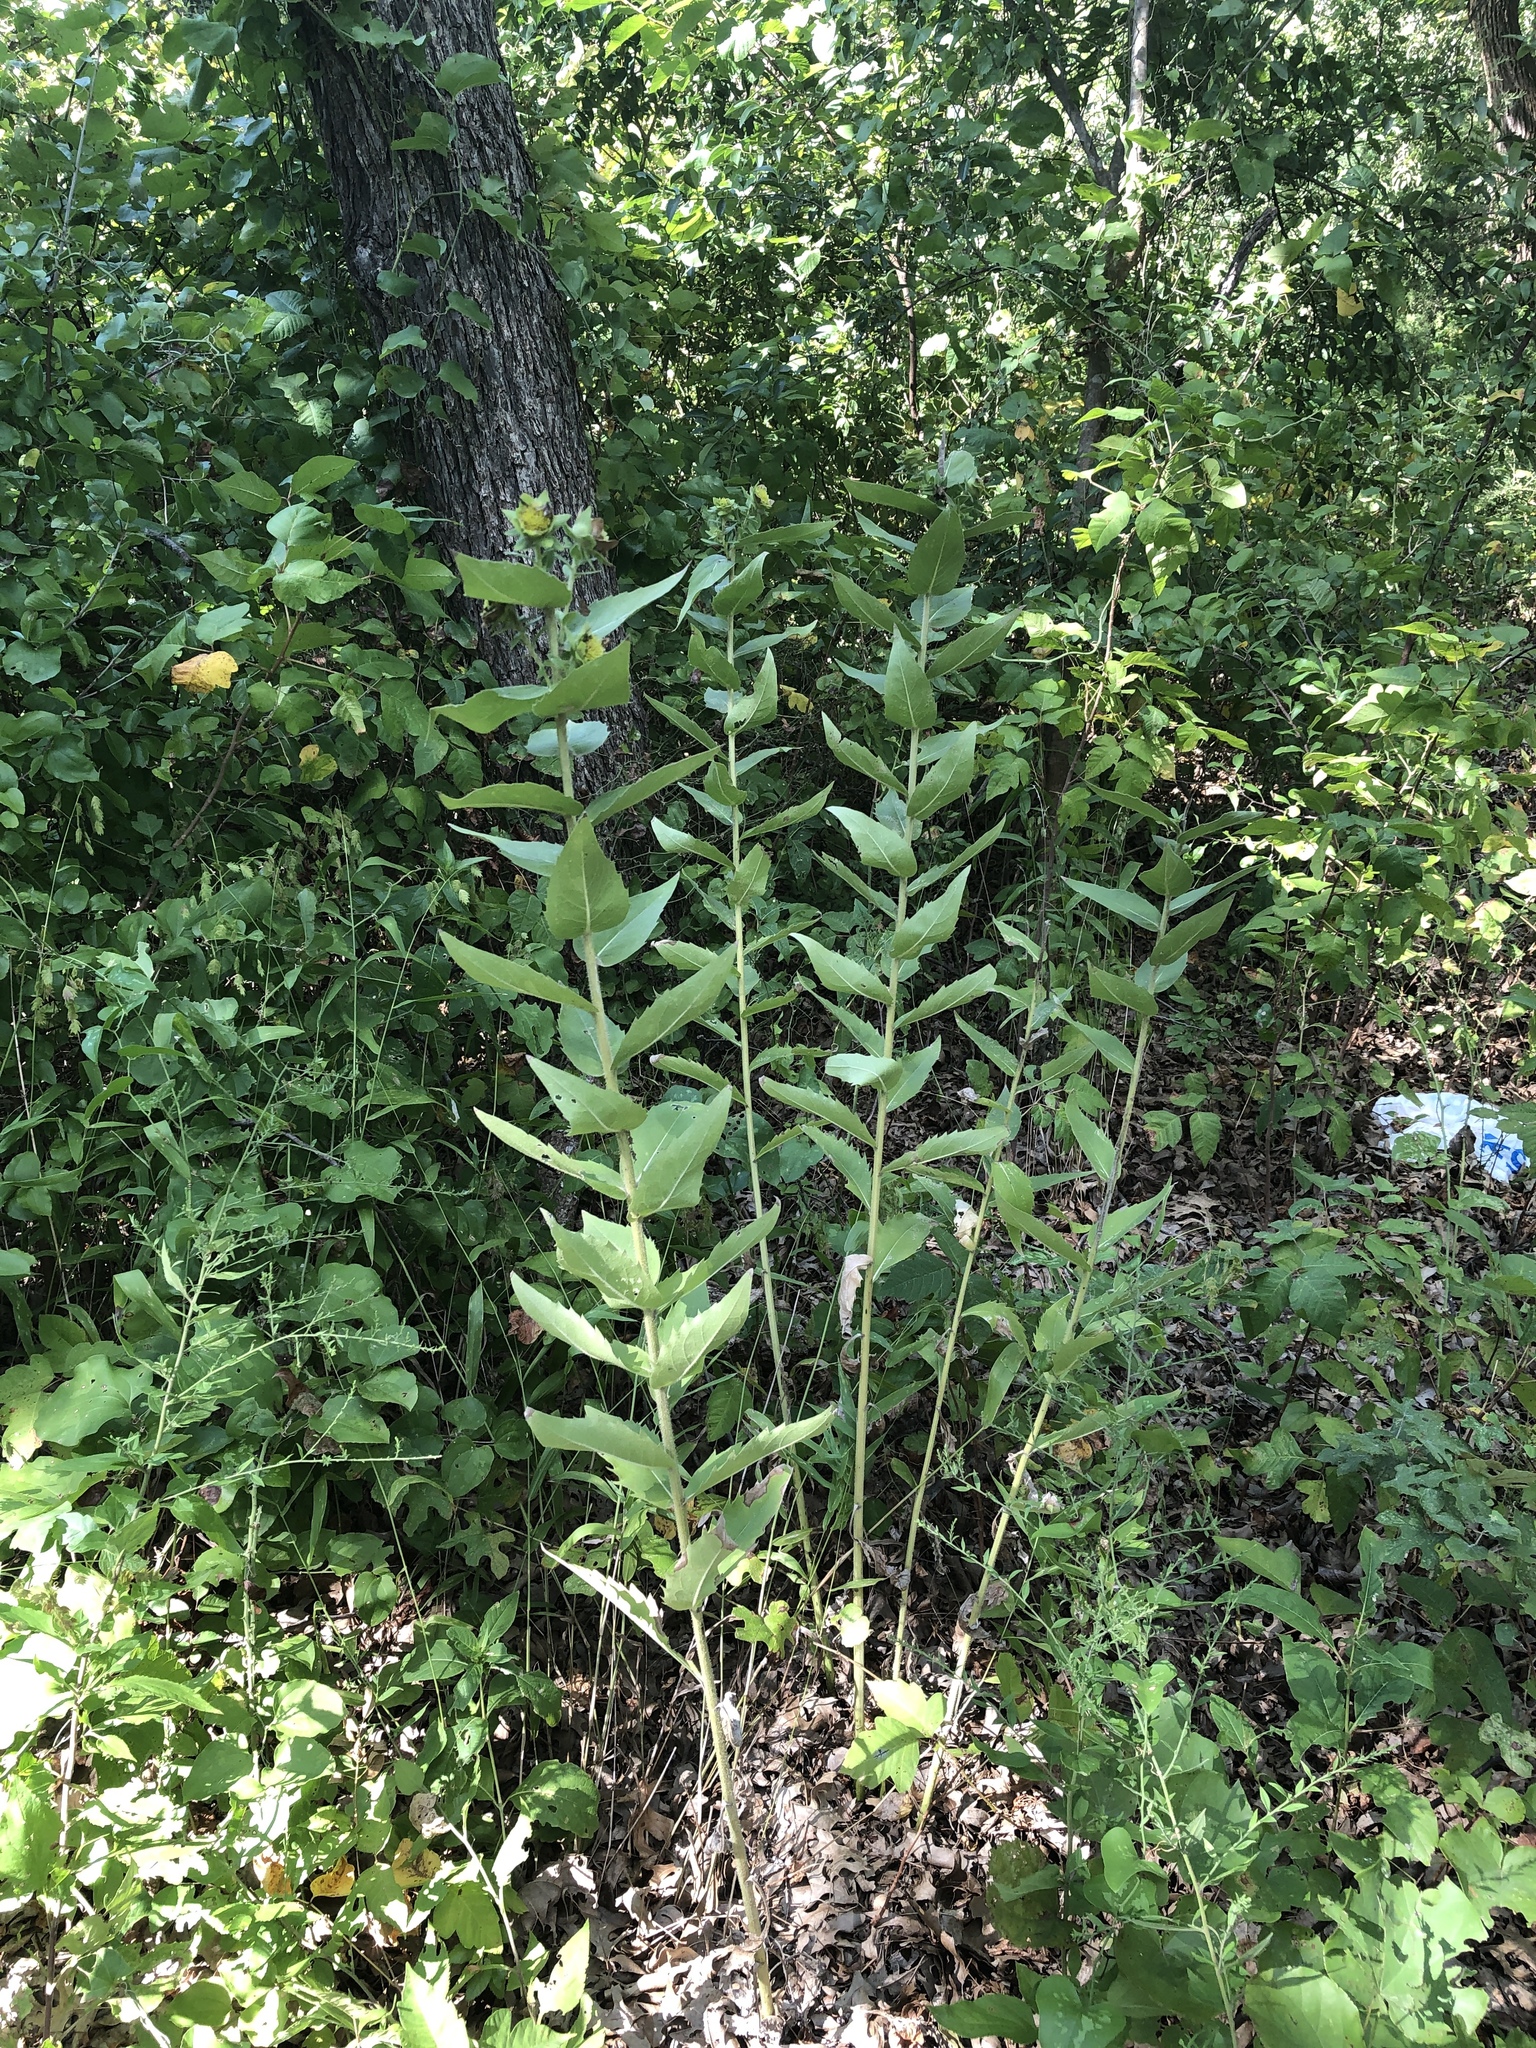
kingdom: Plantae
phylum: Tracheophyta
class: Magnoliopsida
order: Asterales
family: Asteraceae
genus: Silphium
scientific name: Silphium radula
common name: Roughleaf rosinweed
